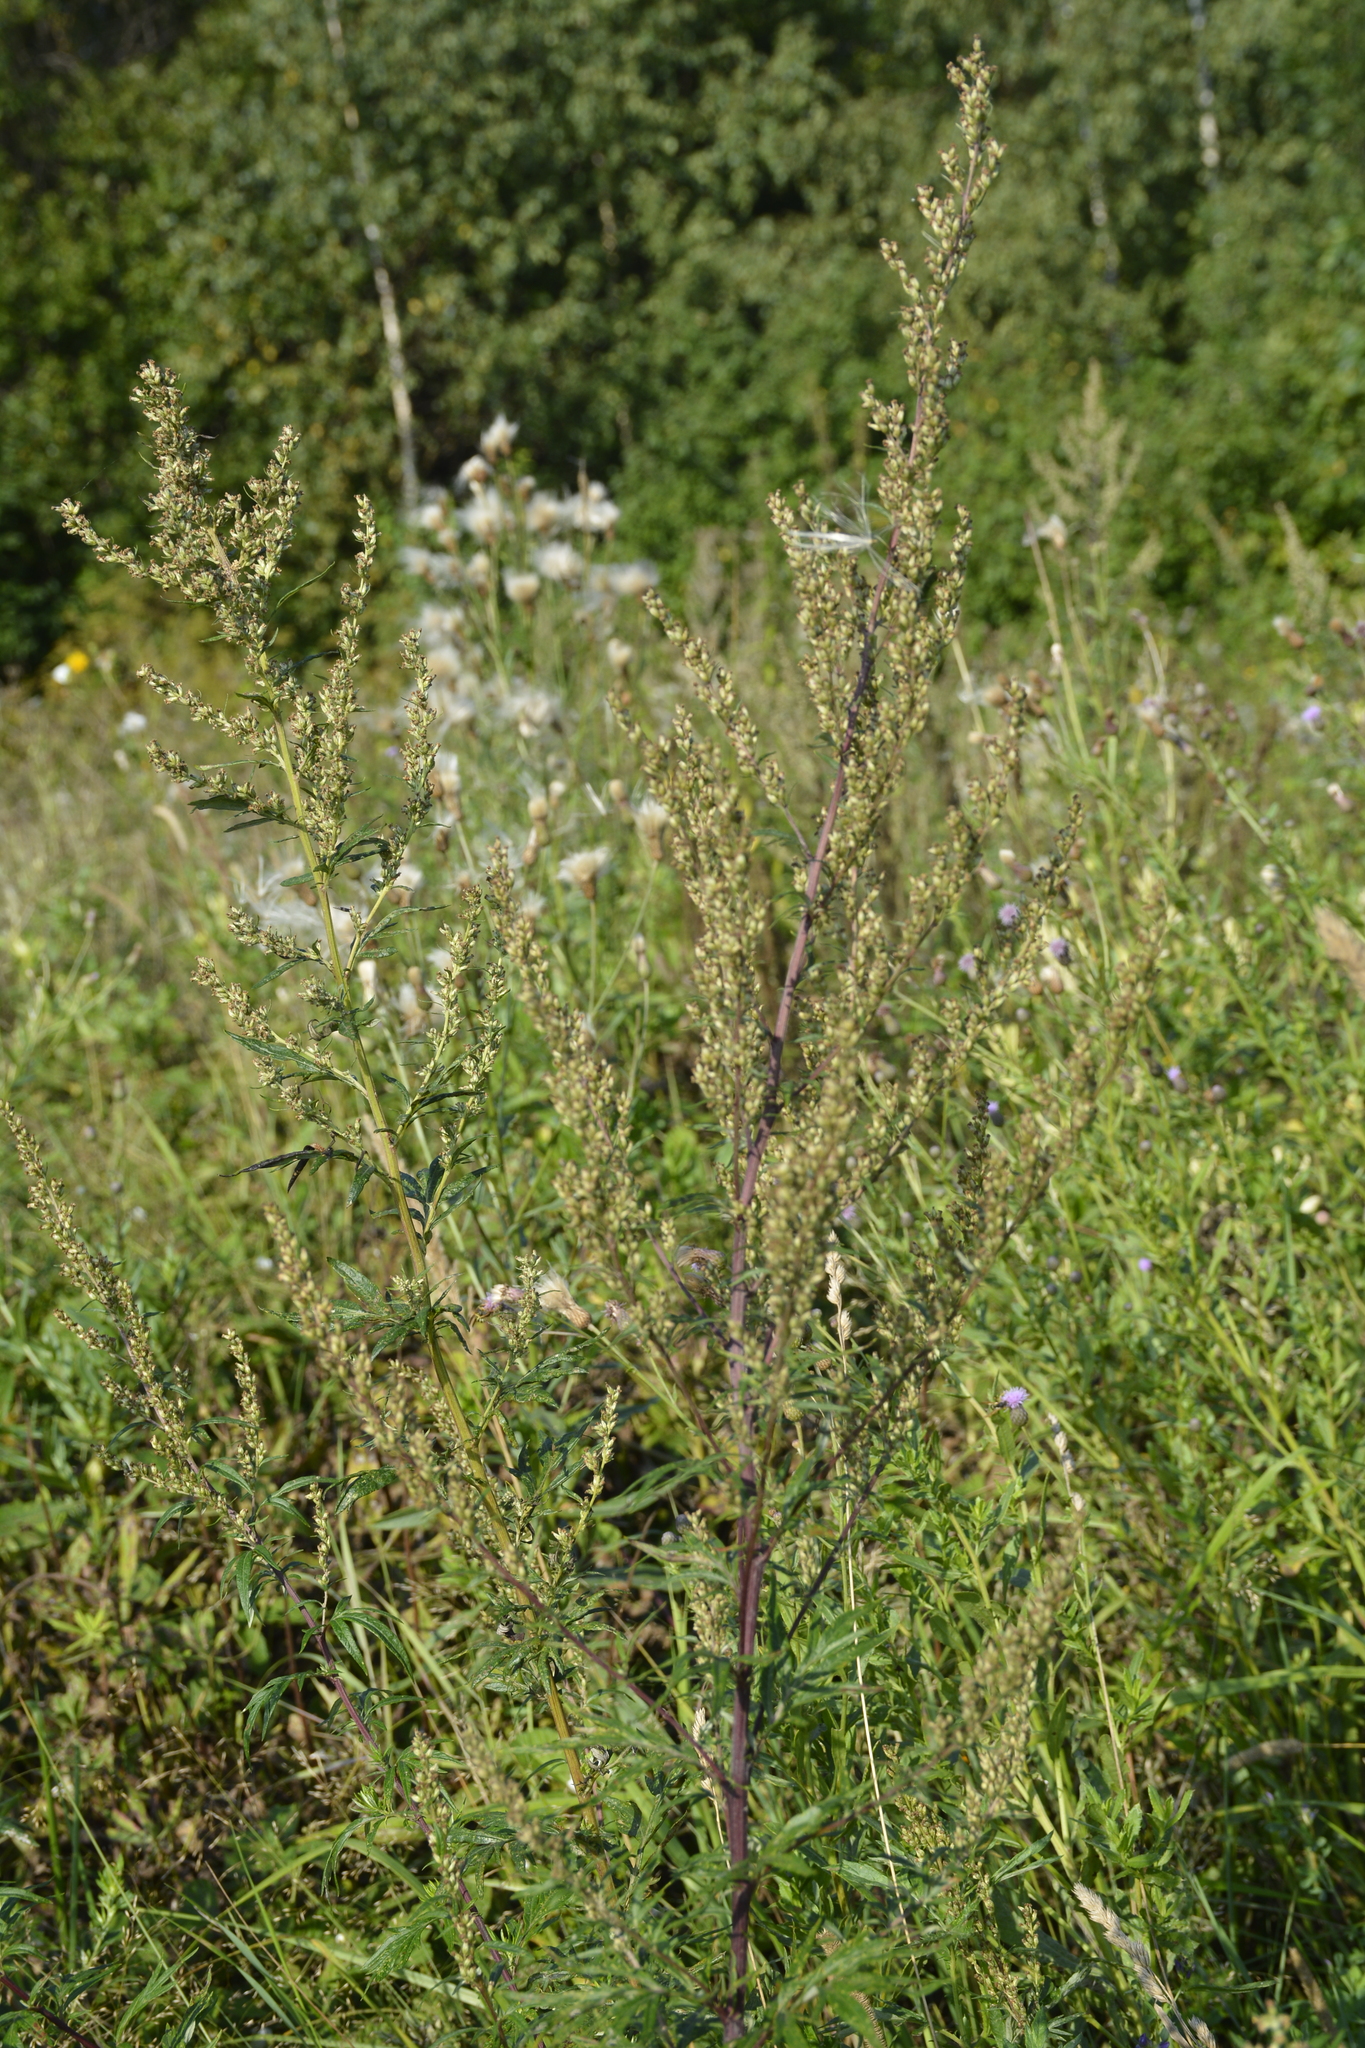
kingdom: Plantae
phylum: Tracheophyta
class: Magnoliopsida
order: Asterales
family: Asteraceae
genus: Artemisia
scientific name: Artemisia vulgaris
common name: Mugwort
